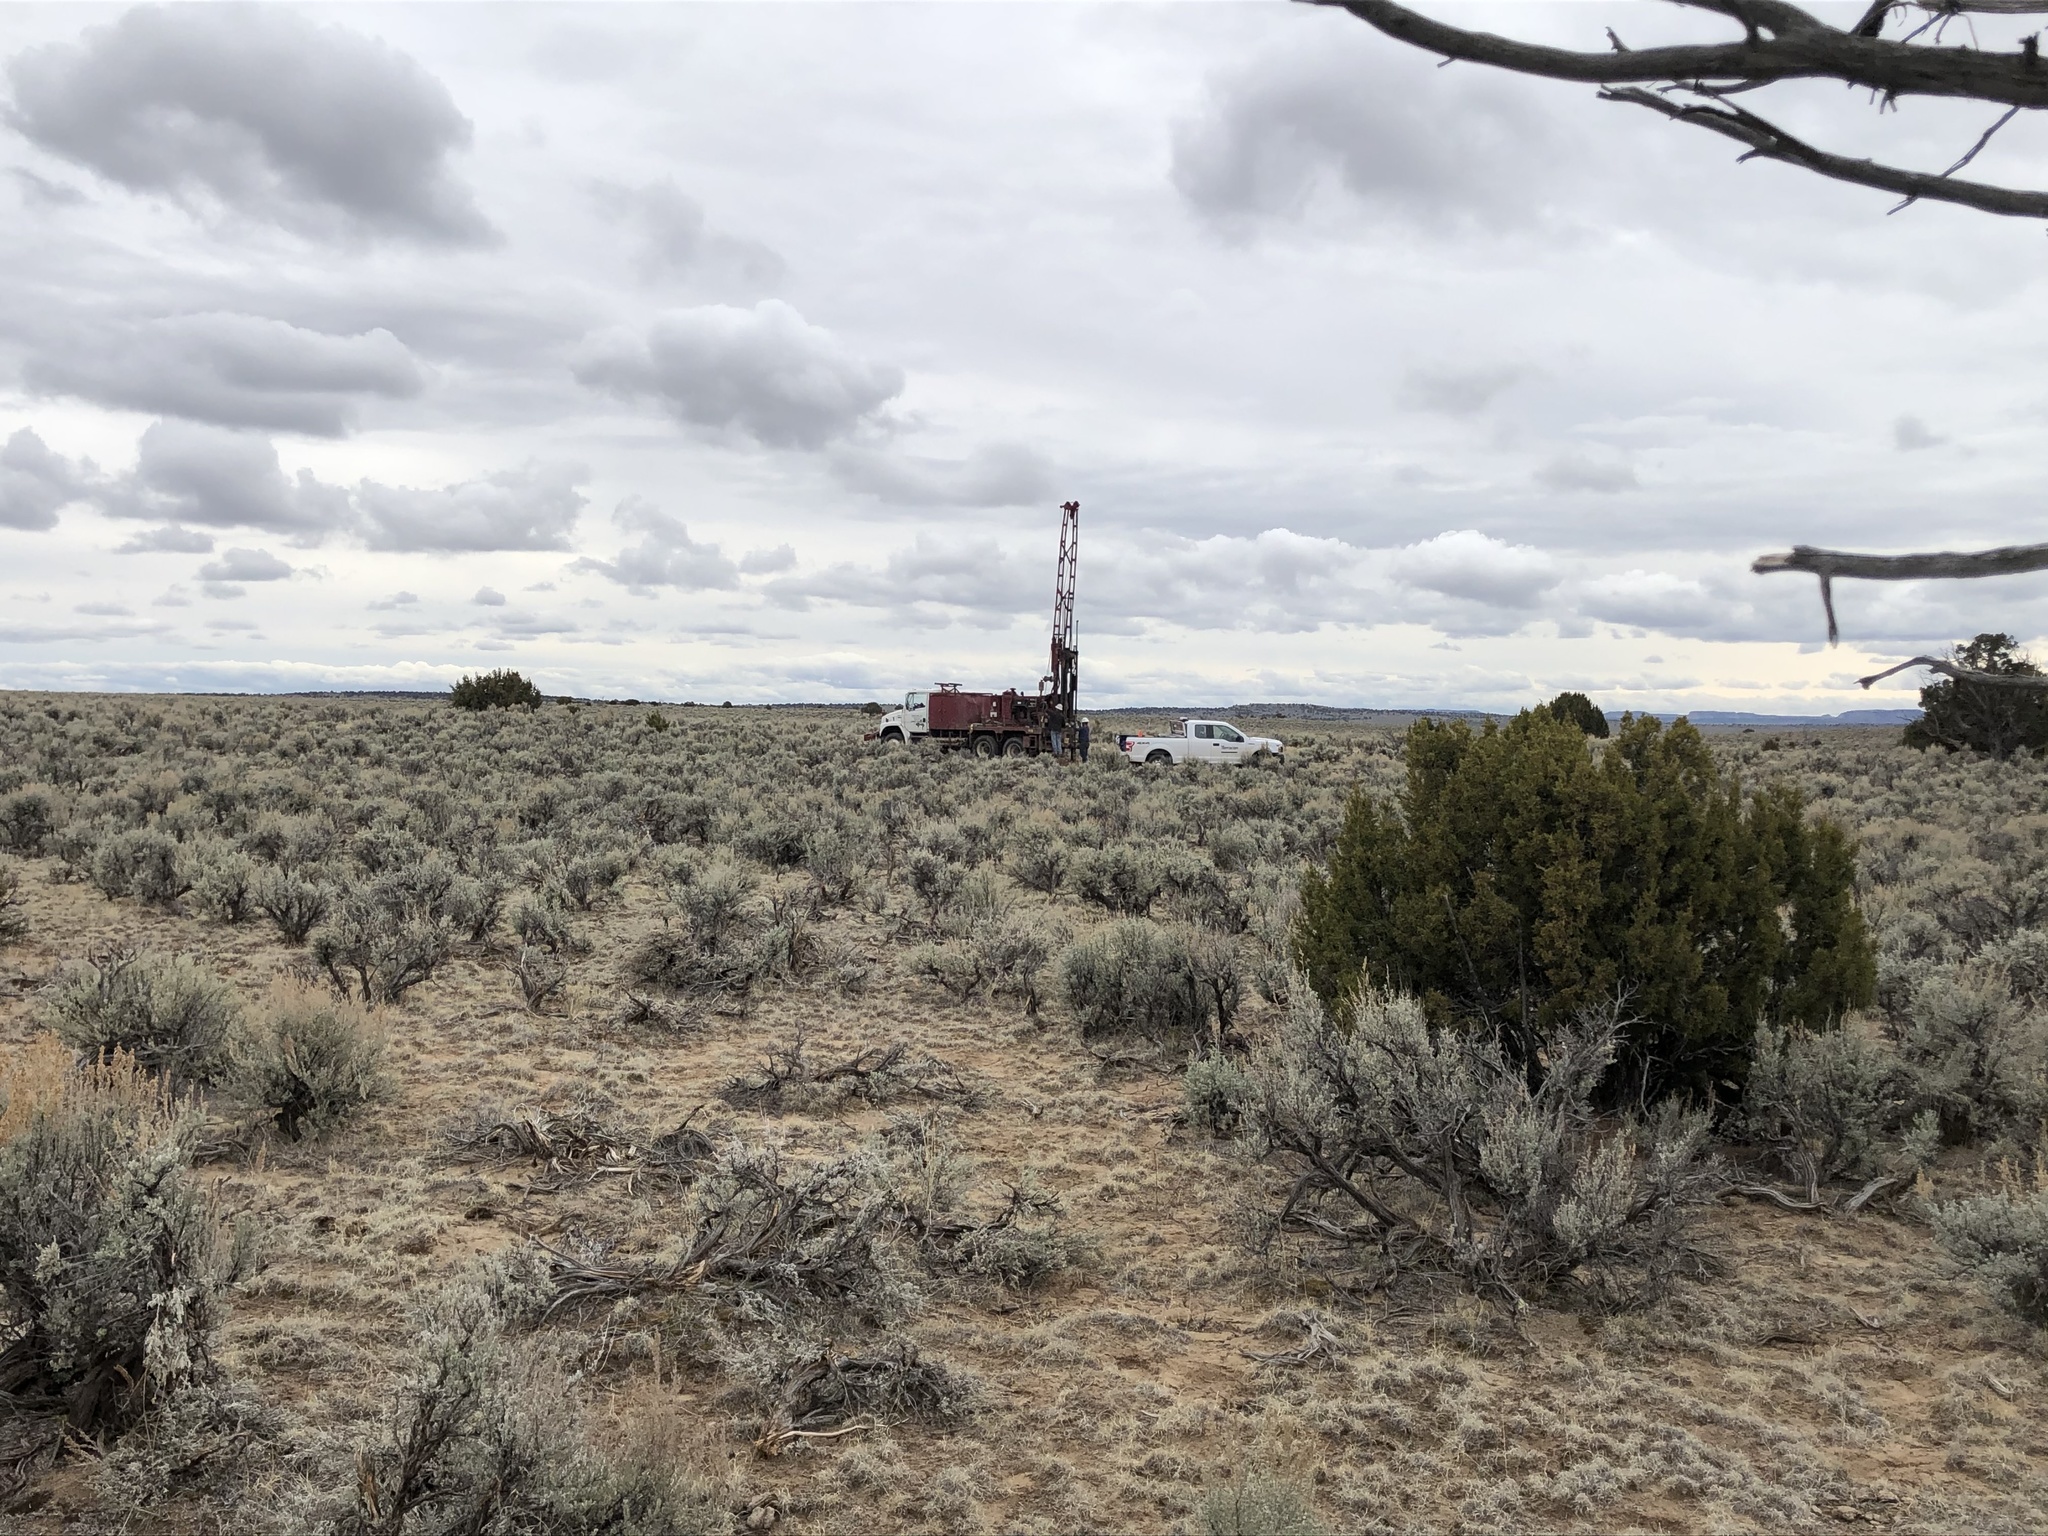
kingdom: Plantae
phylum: Tracheophyta
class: Magnoliopsida
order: Asterales
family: Asteraceae
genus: Artemisia
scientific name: Artemisia tridentata
